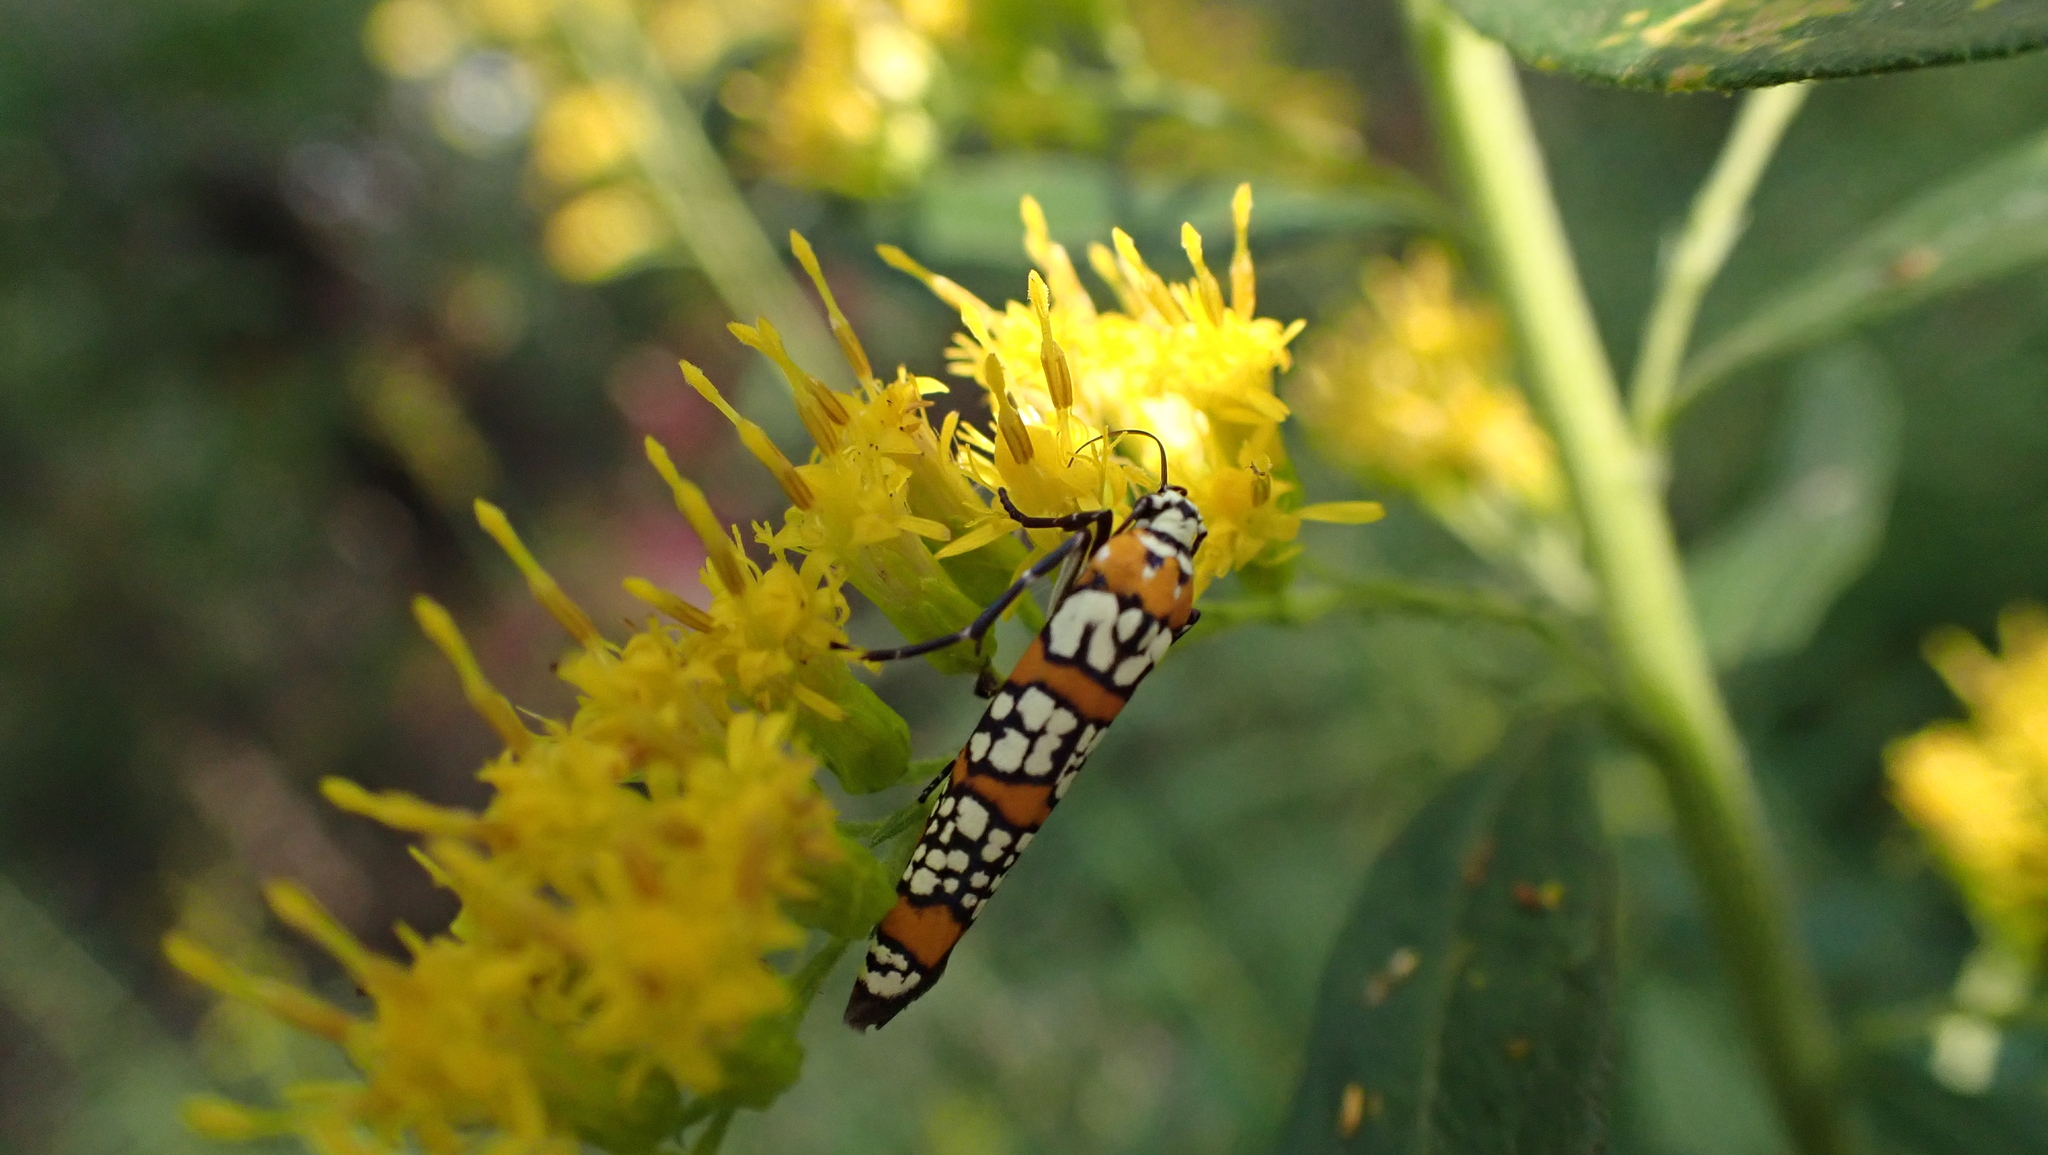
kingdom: Animalia
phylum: Arthropoda
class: Insecta
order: Lepidoptera
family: Attevidae
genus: Atteva
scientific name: Atteva punctella
